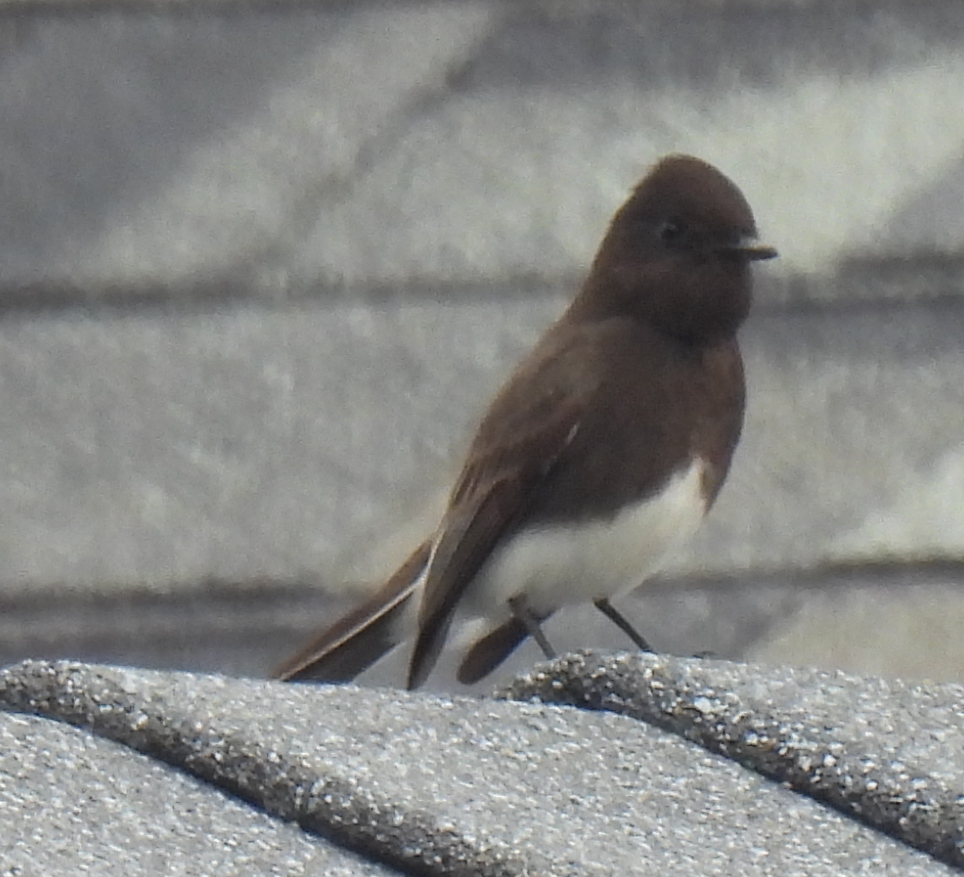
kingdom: Animalia
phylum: Chordata
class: Aves
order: Passeriformes
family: Tyrannidae
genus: Sayornis
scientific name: Sayornis nigricans
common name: Black phoebe
